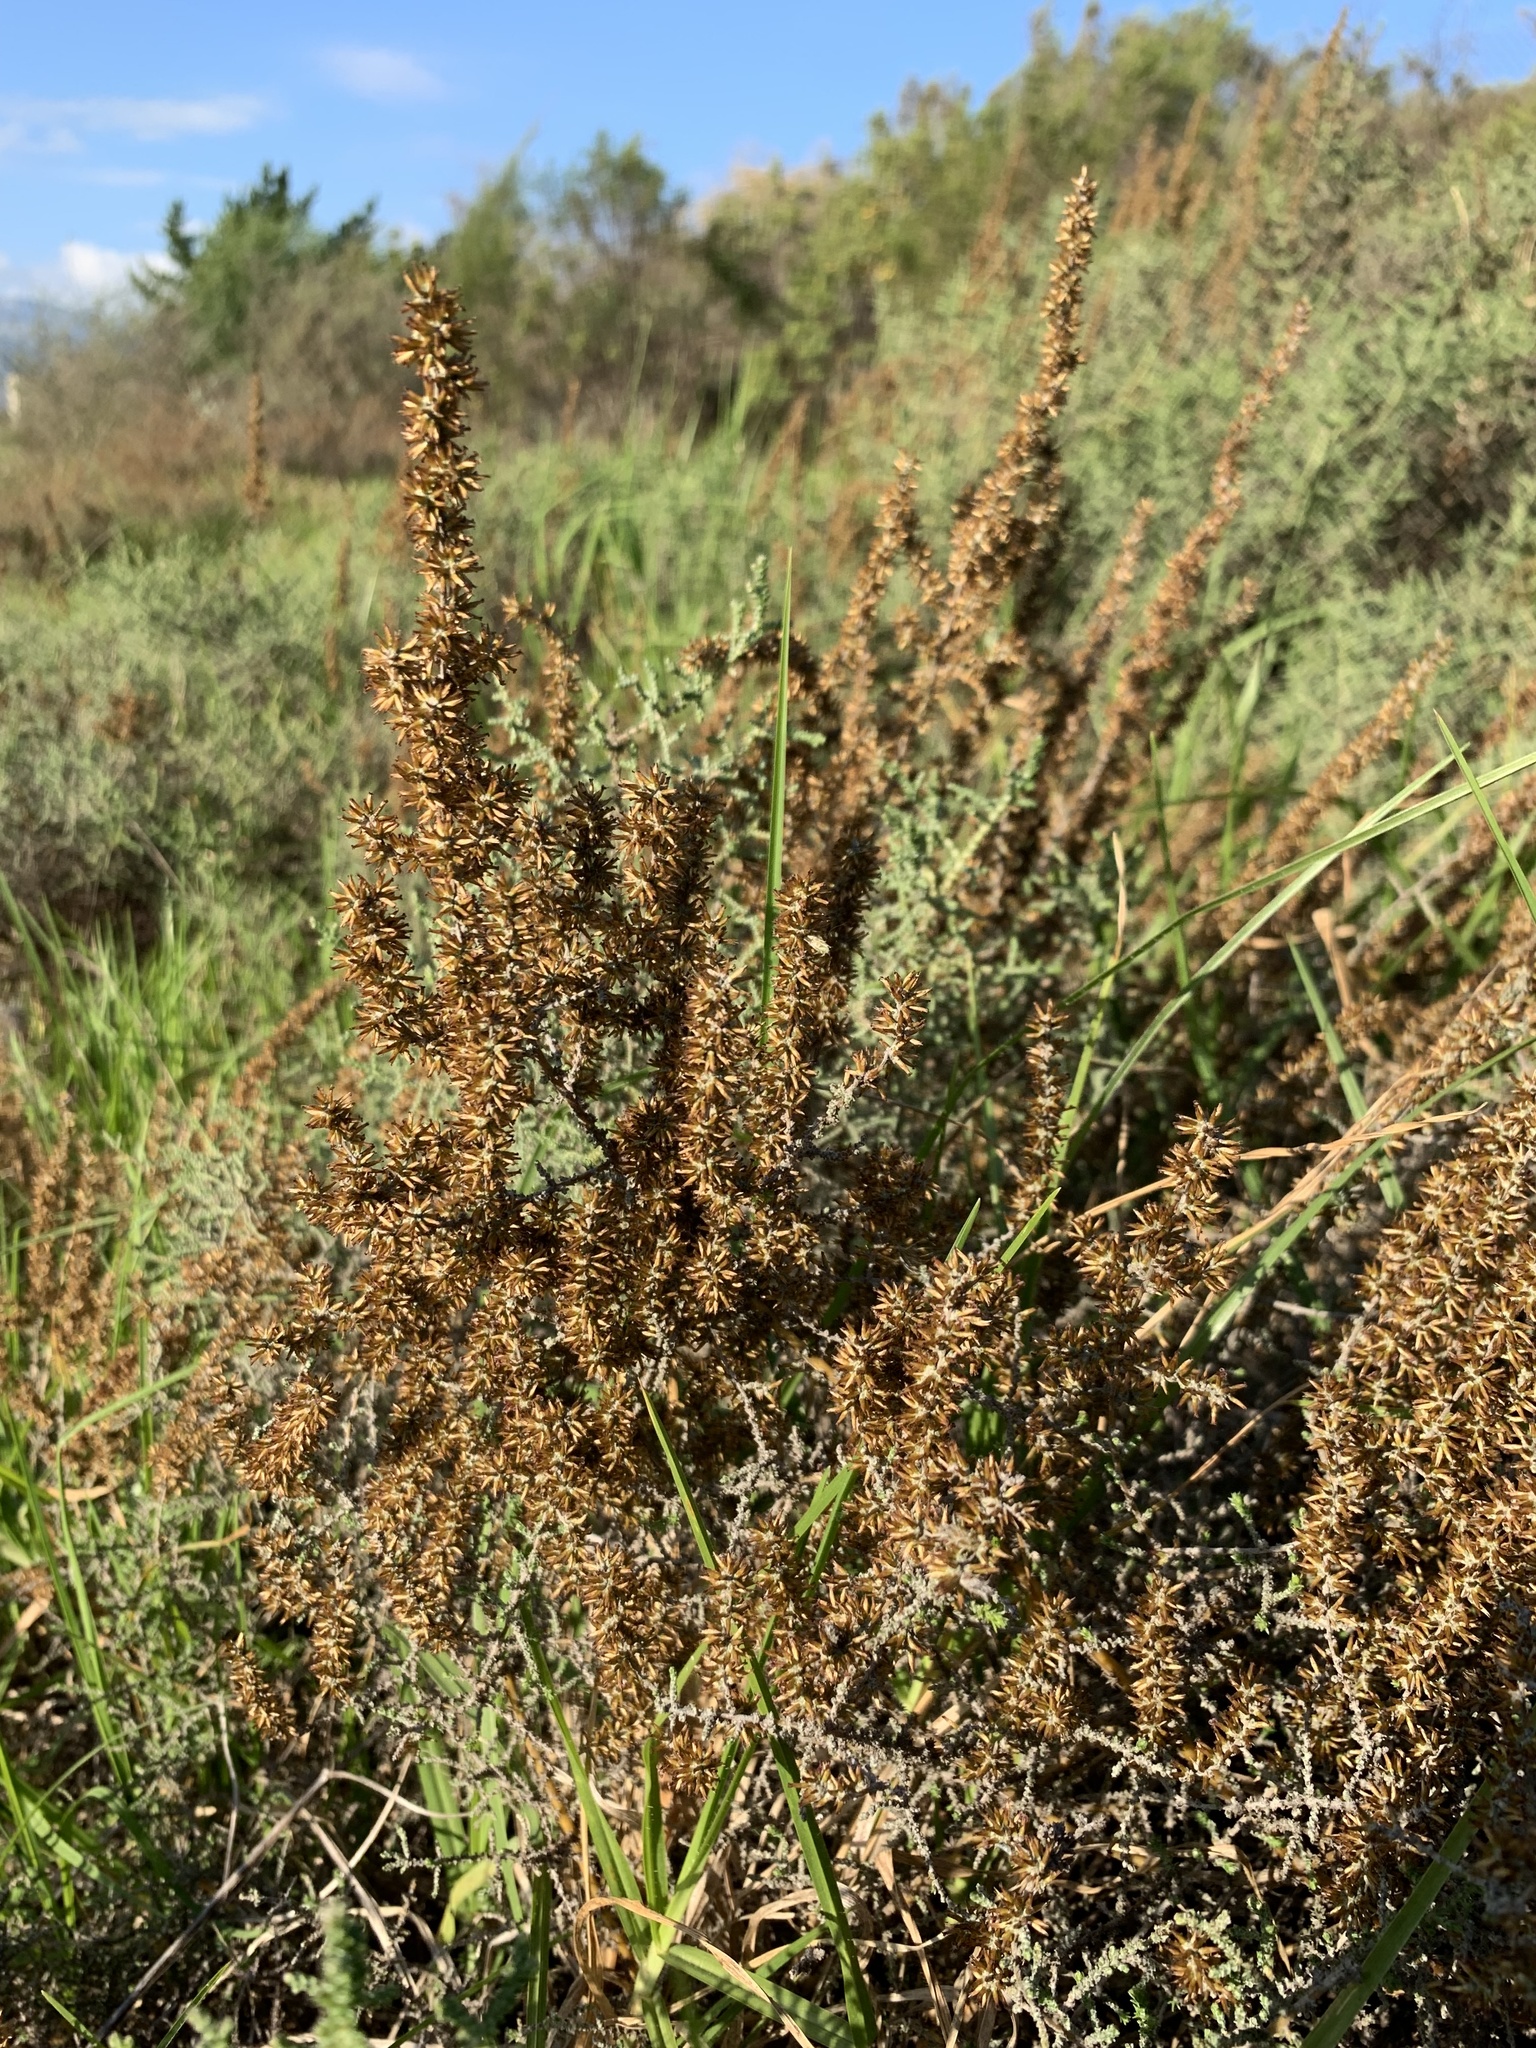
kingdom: Plantae
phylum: Tracheophyta
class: Magnoliopsida
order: Asterales
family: Asteraceae
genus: Seriphium
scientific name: Seriphium plumosum
